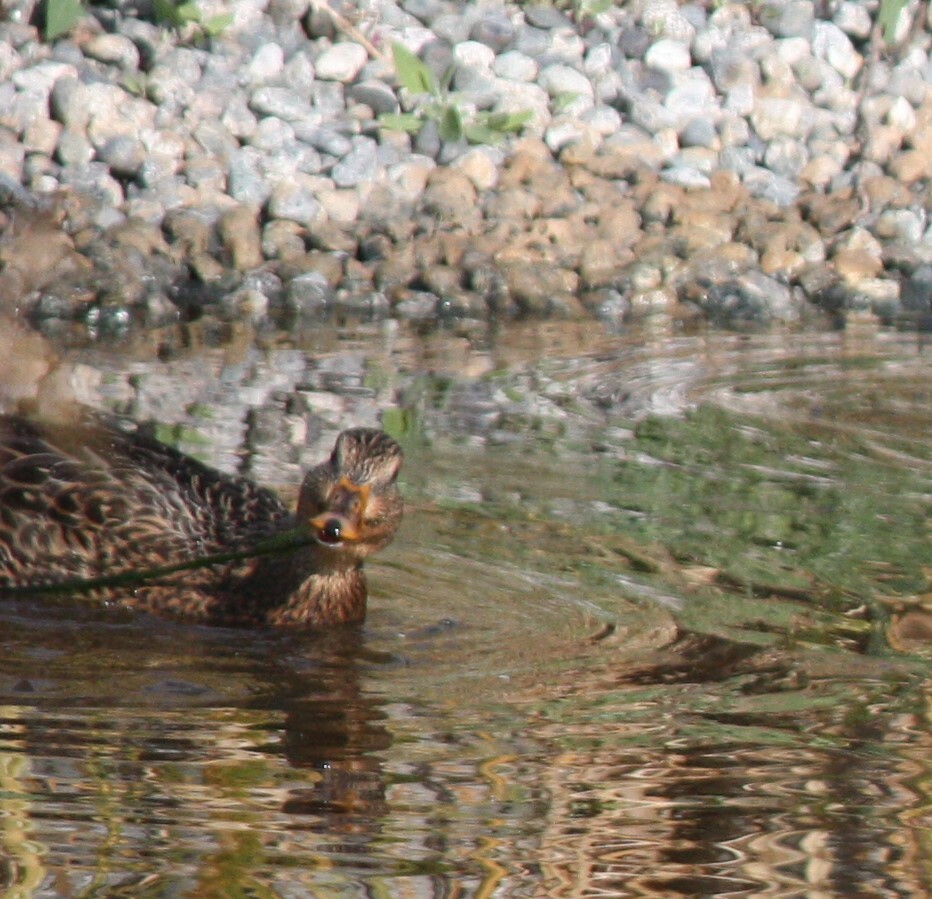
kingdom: Animalia
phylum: Chordata
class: Aves
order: Anseriformes
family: Anatidae
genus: Anas
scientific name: Anas platyrhynchos
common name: Mallard
